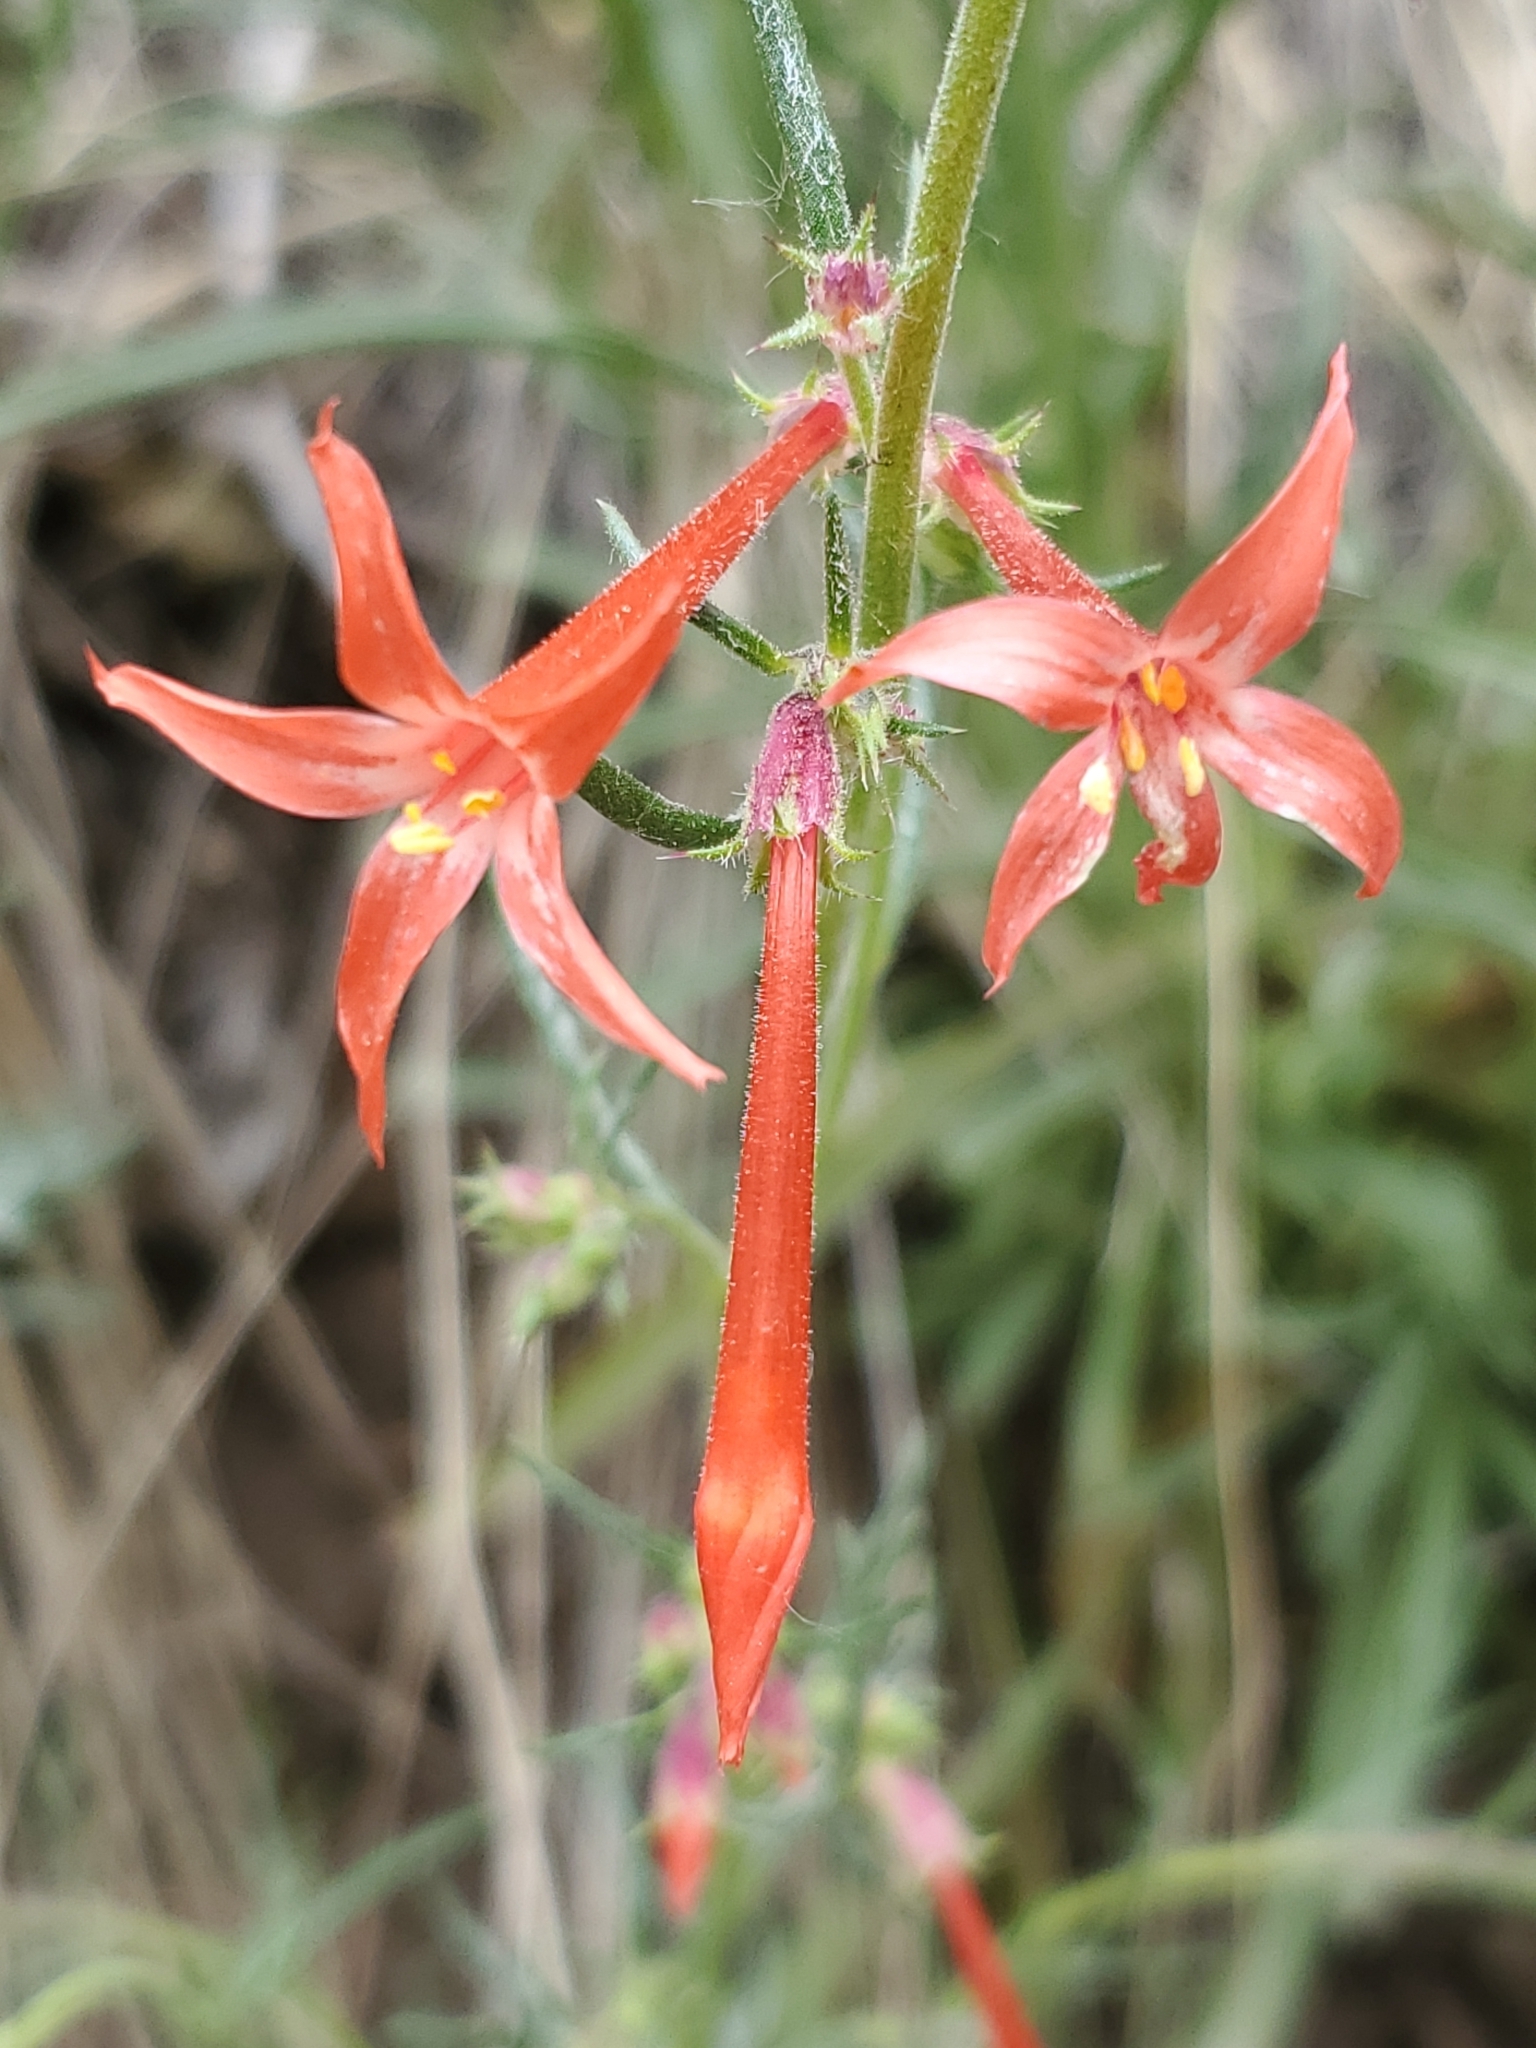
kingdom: Plantae
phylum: Tracheophyta
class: Magnoliopsida
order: Ericales
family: Polemoniaceae
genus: Ipomopsis
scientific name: Ipomopsis aggregata
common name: Scarlet gilia
